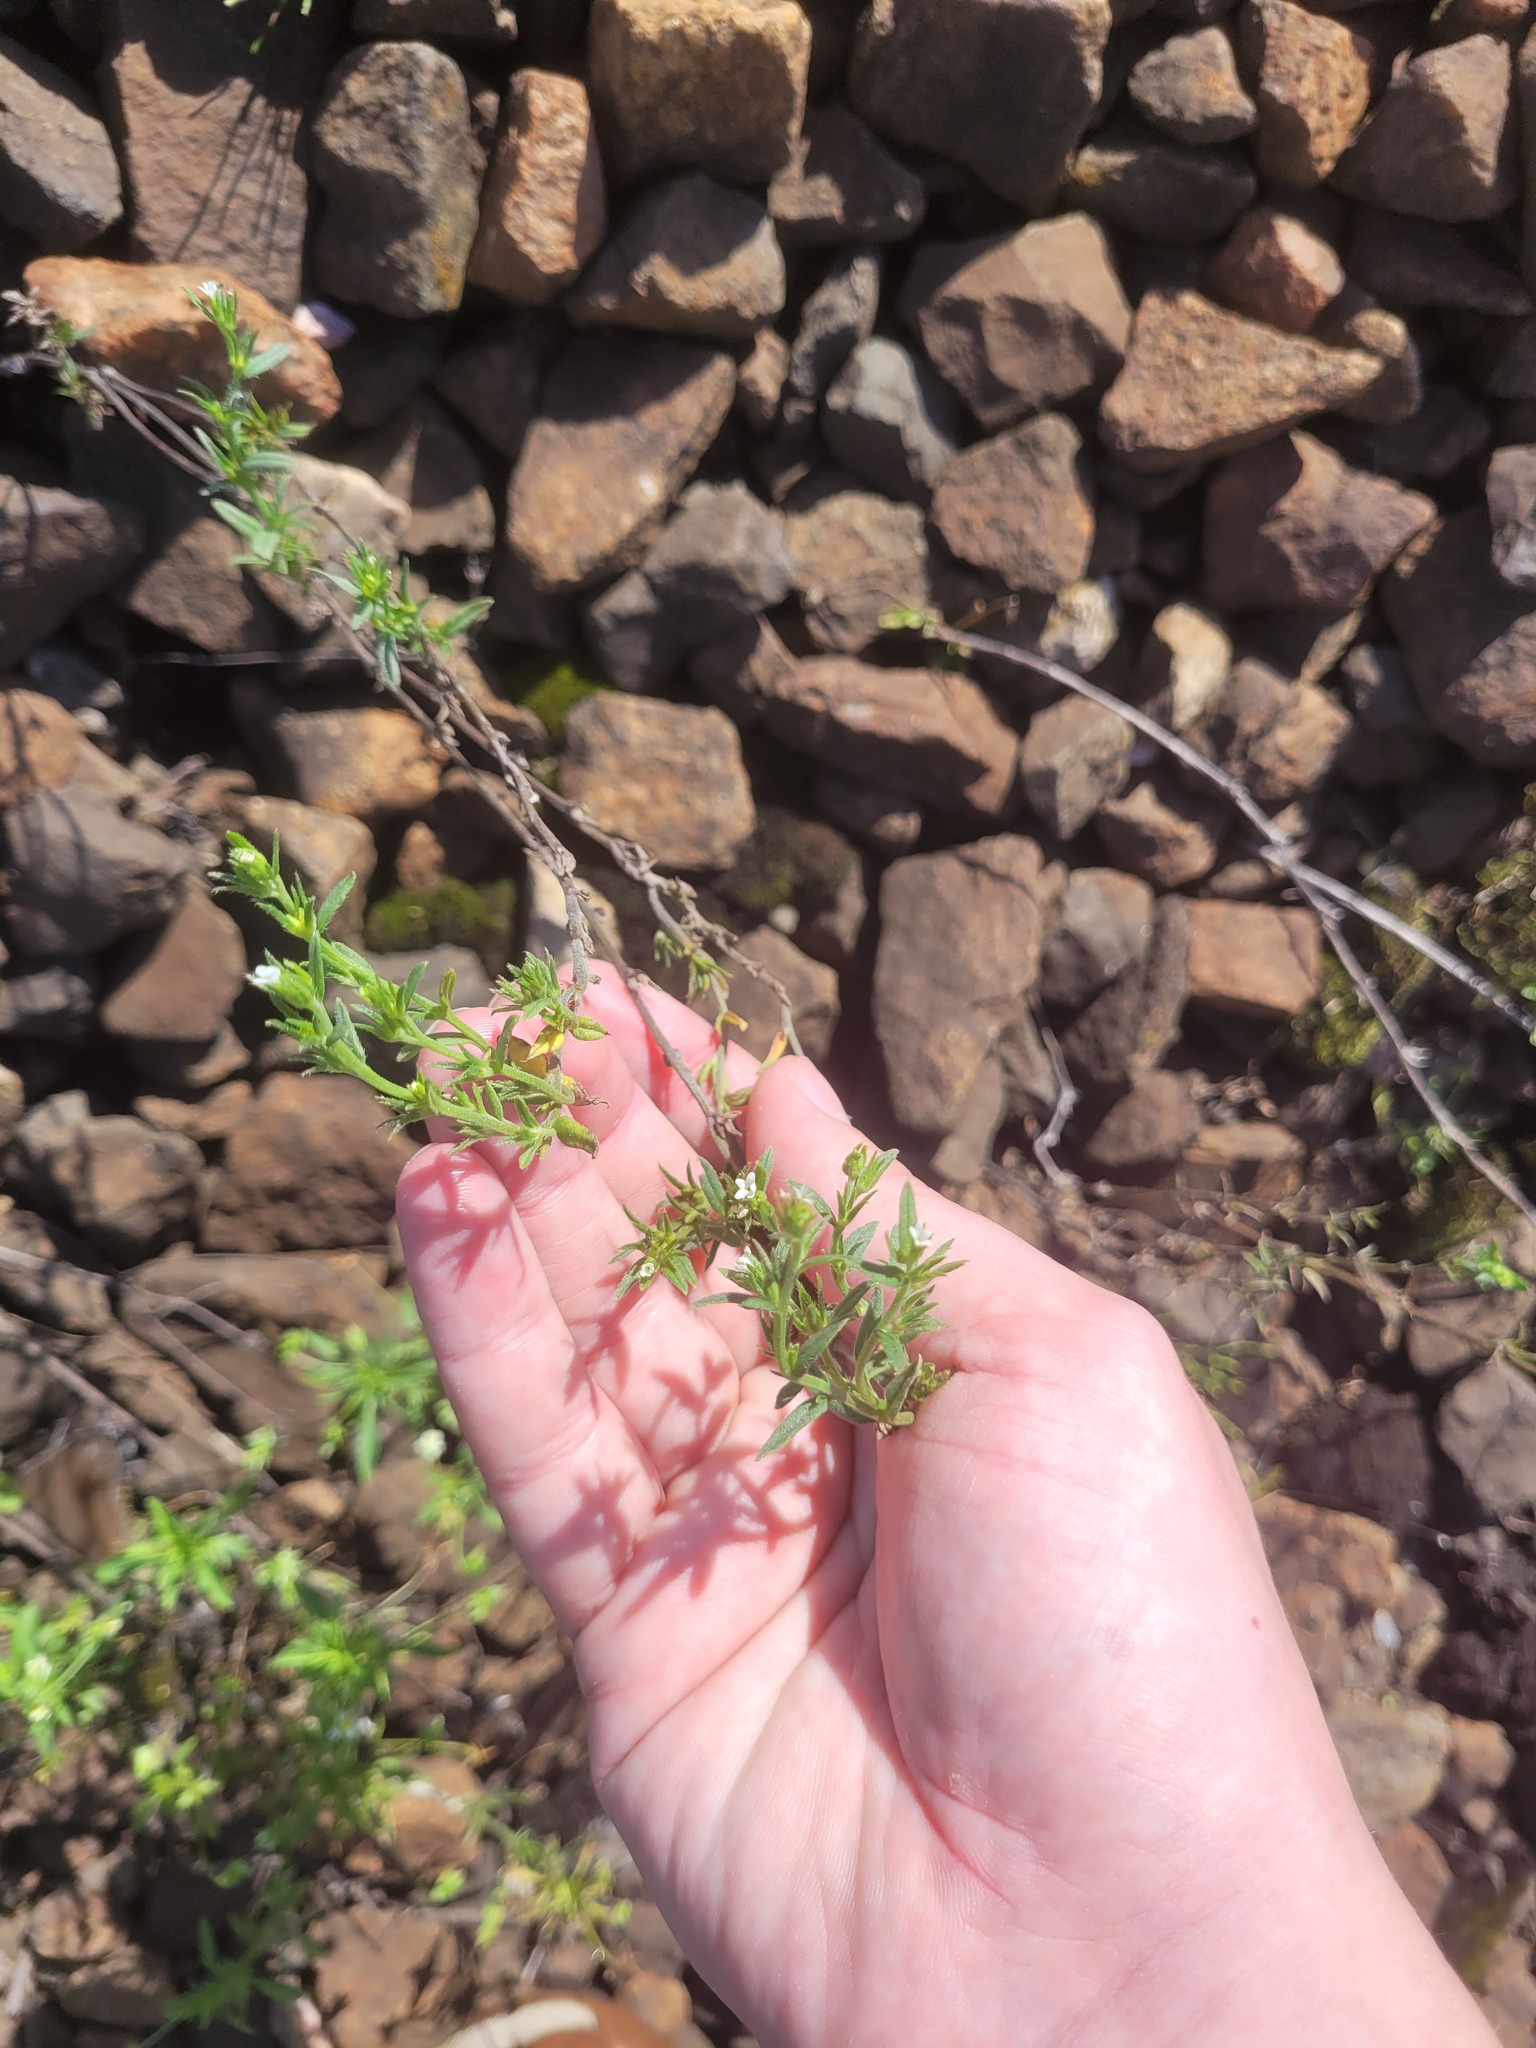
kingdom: Plantae
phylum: Tracheophyta
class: Magnoliopsida
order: Boraginales
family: Boraginaceae
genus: Buglossoides
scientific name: Buglossoides arvensis
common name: Corn gromwell
